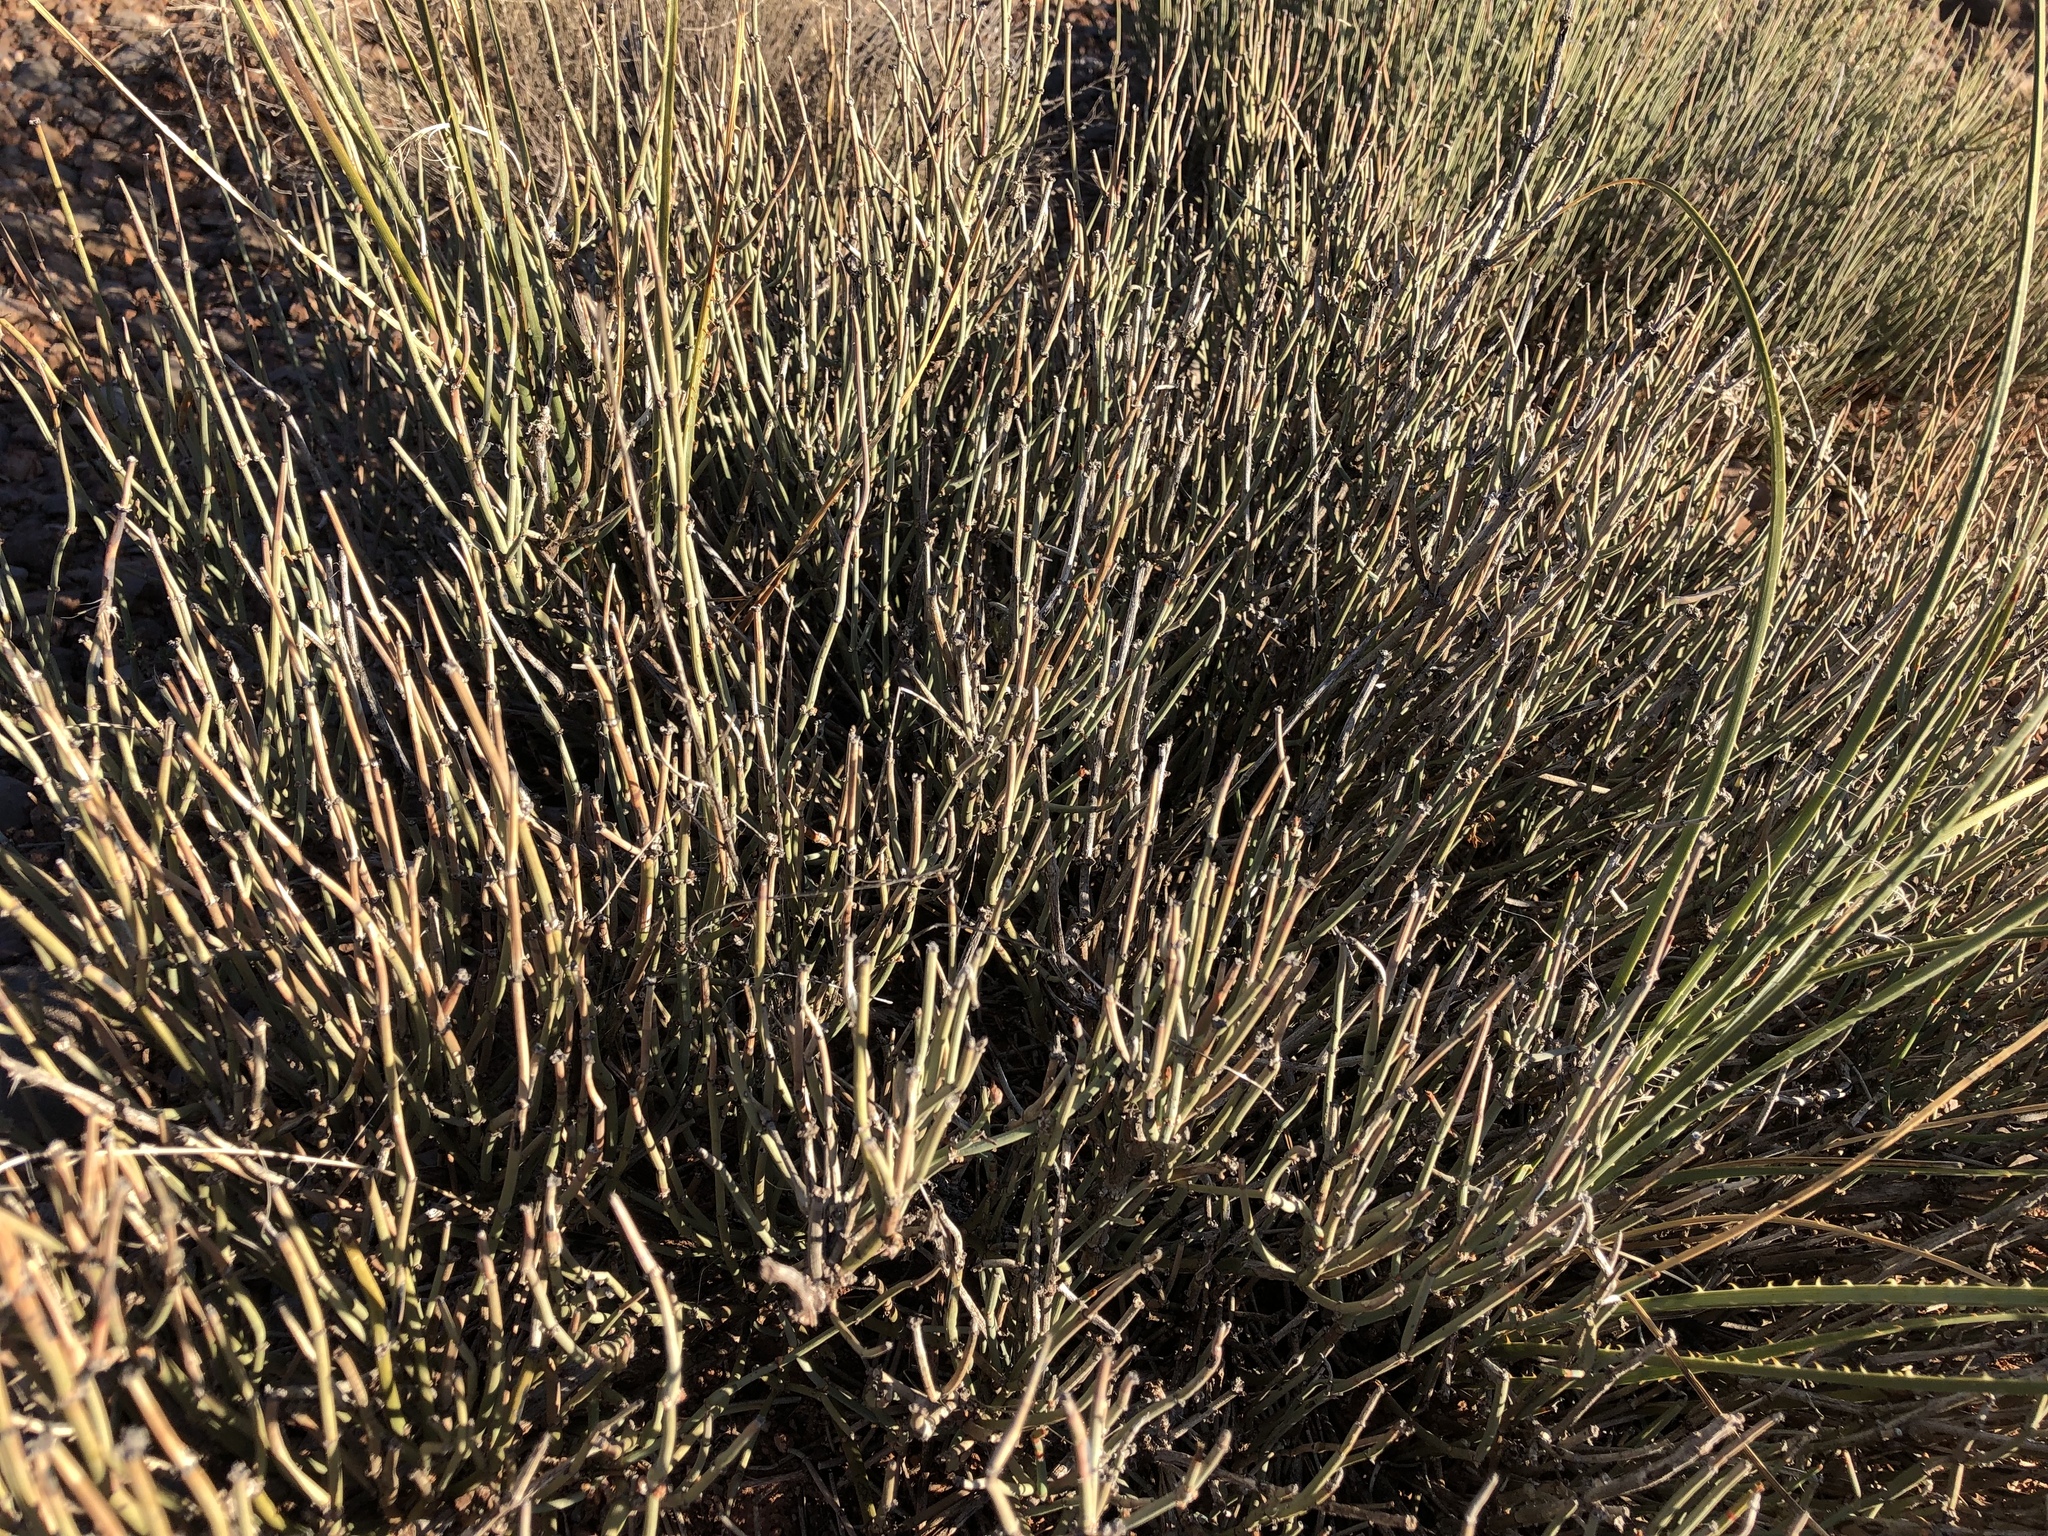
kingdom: Plantae
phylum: Tracheophyta
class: Gnetopsida
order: Ephedrales
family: Ephedraceae
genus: Ephedra
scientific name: Ephedra torreyana
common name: Torrey ephedra
